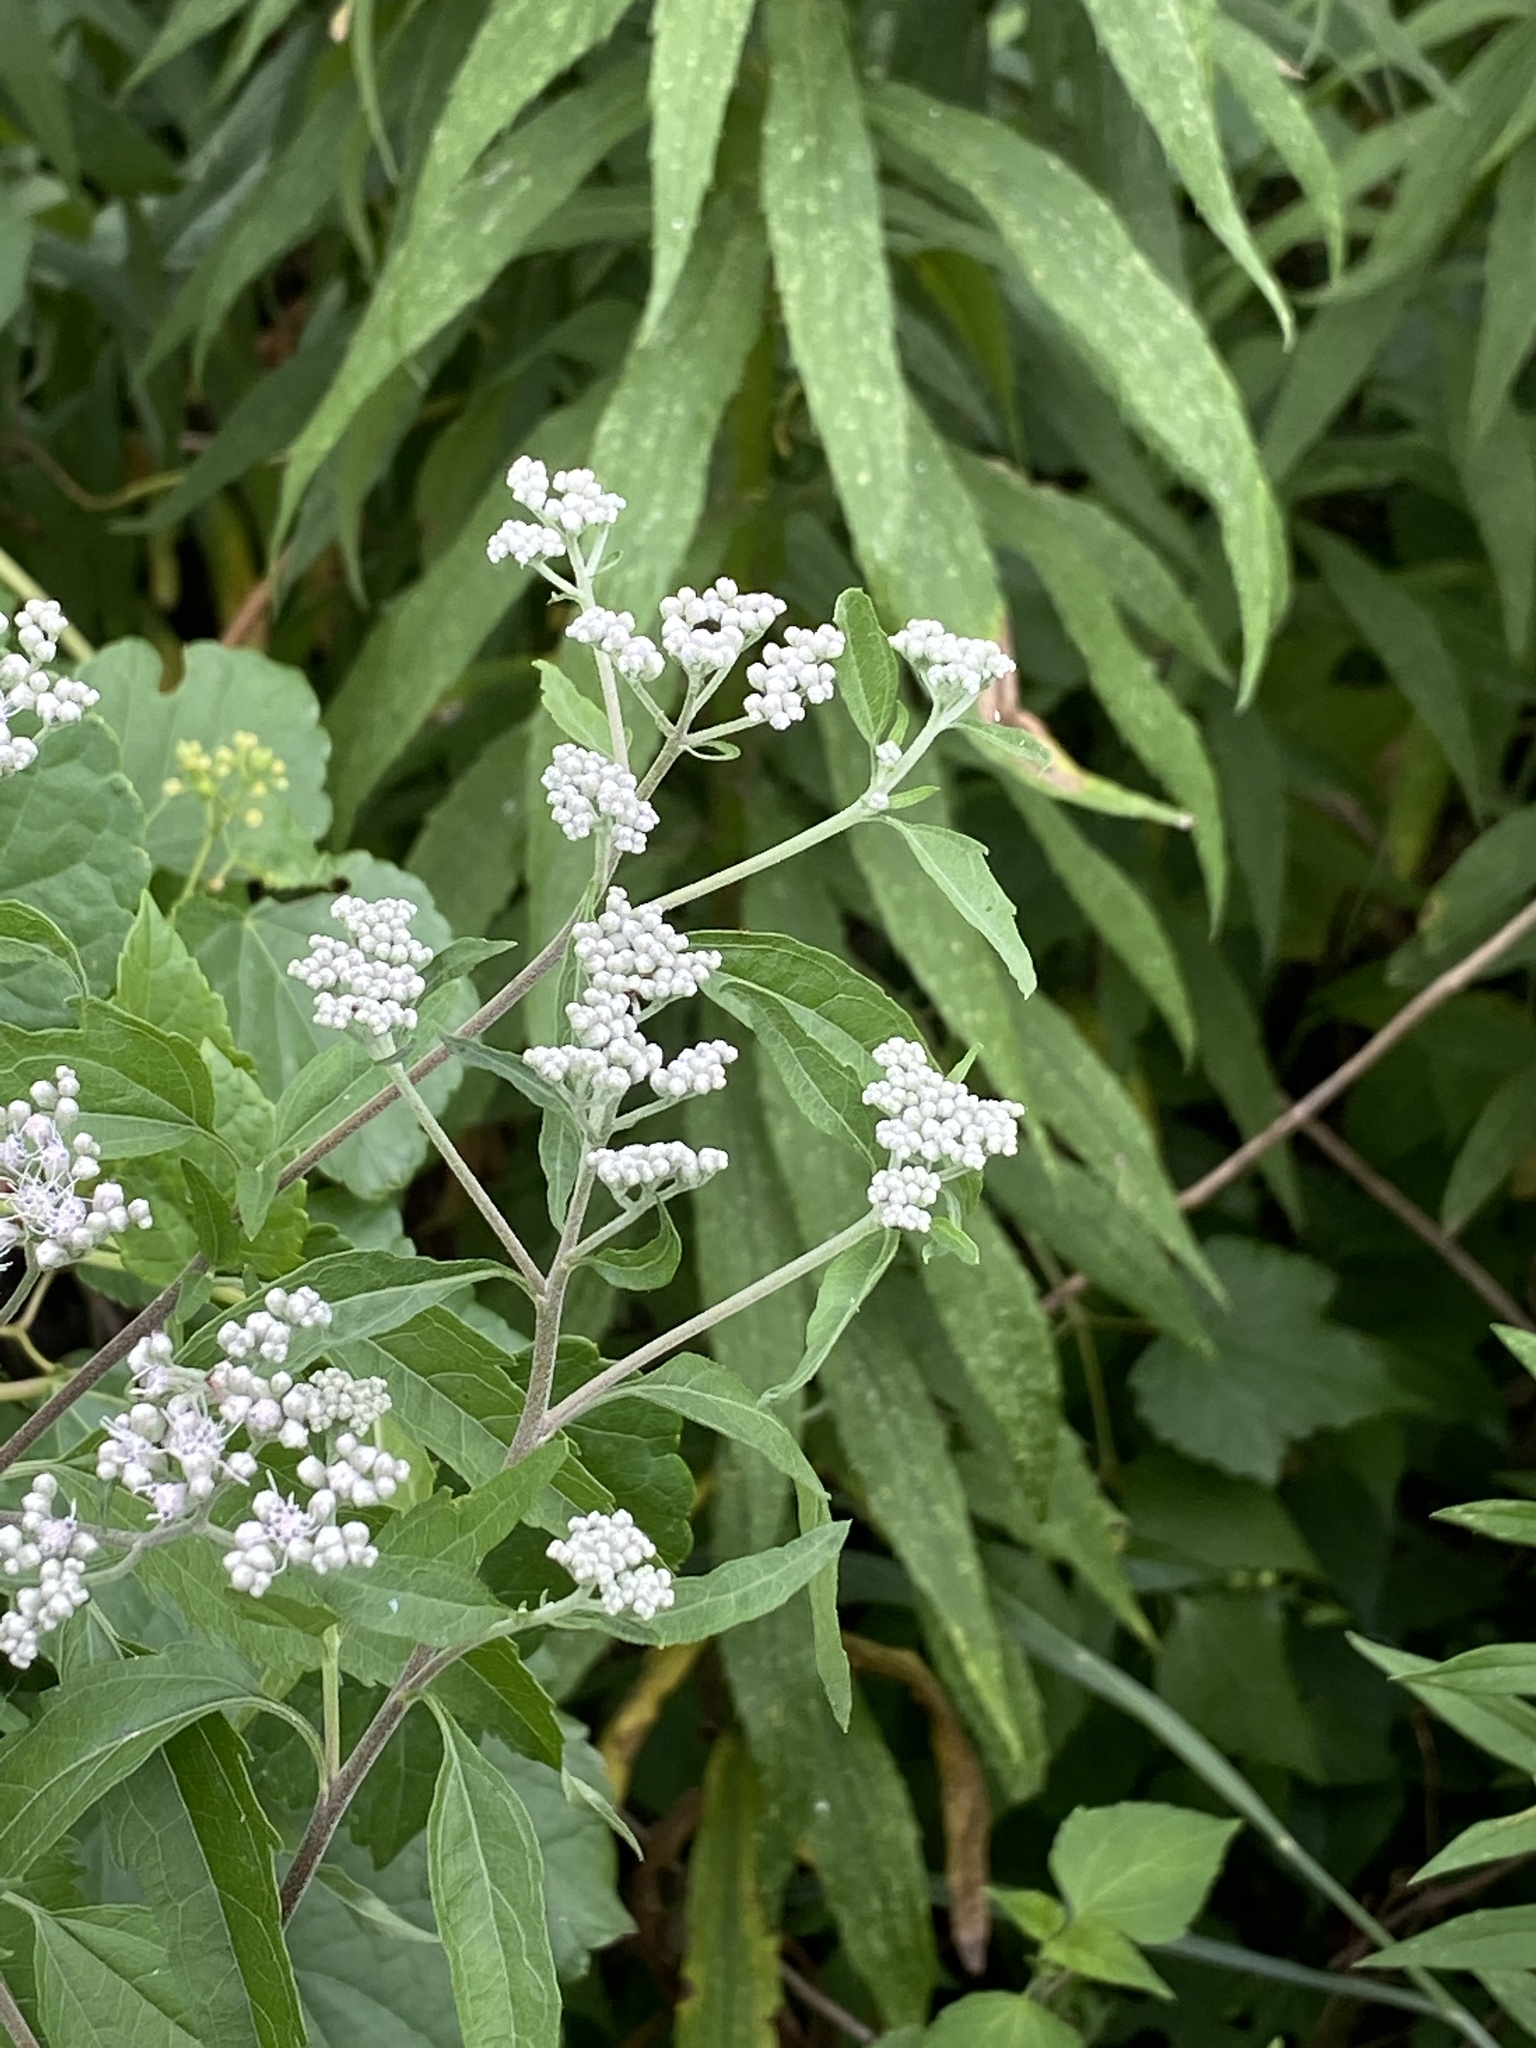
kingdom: Plantae
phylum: Tracheophyta
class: Magnoliopsida
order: Asterales
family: Asteraceae
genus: Eupatorium
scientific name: Eupatorium serotinum
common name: Late boneset
